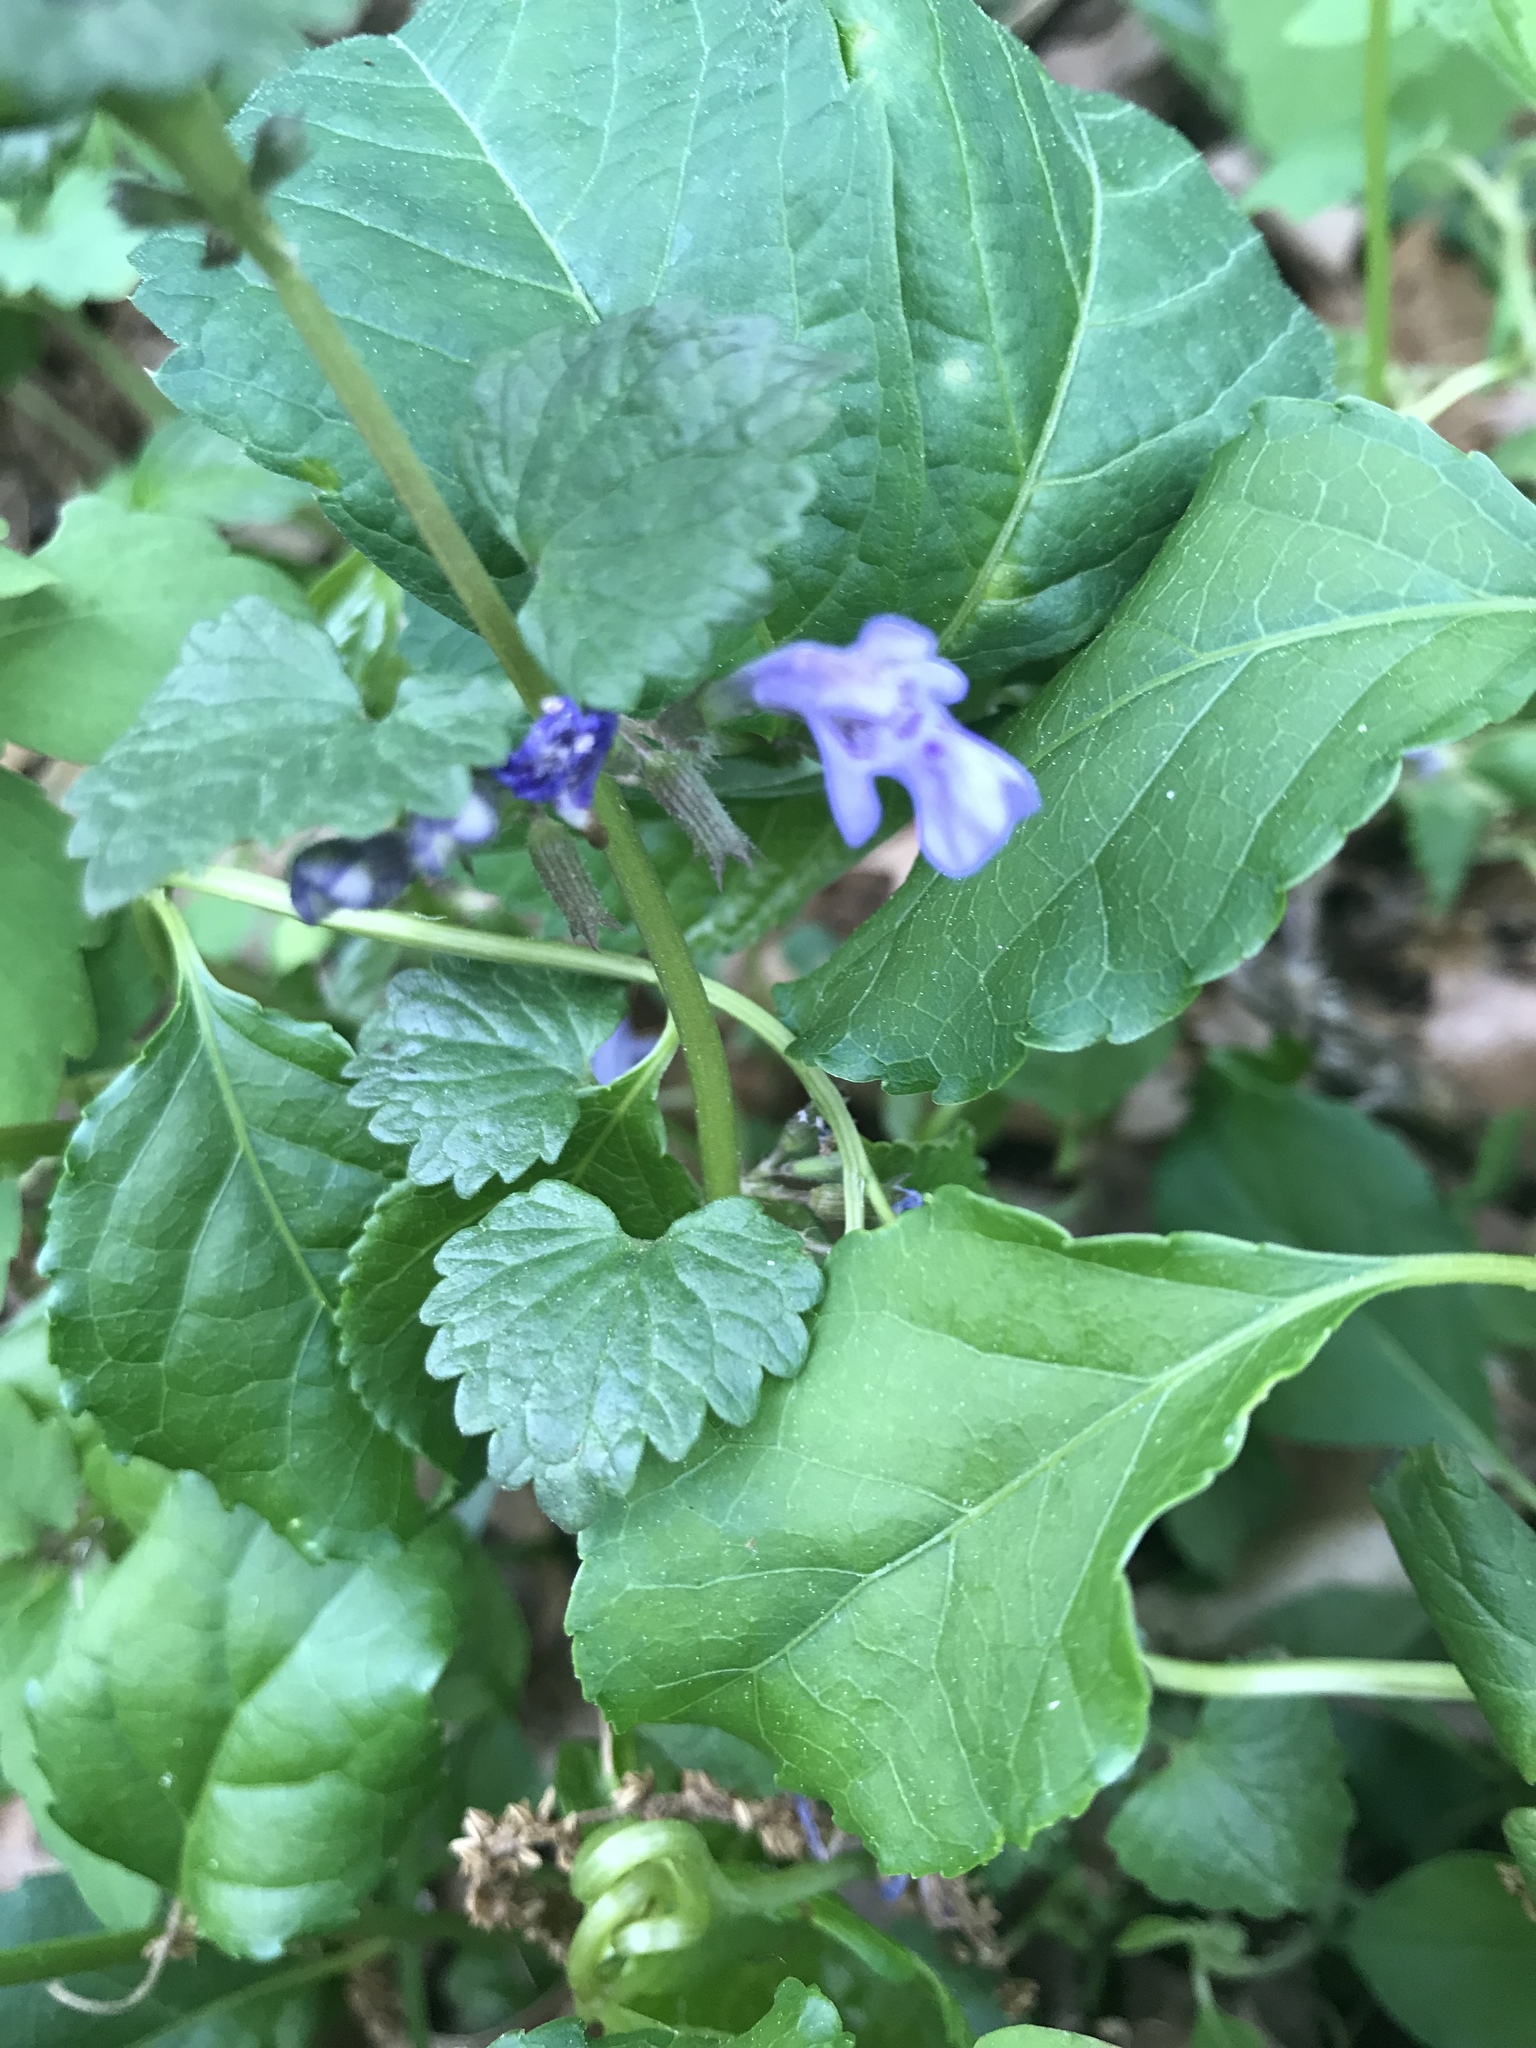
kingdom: Plantae
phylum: Tracheophyta
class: Magnoliopsida
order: Lamiales
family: Lamiaceae
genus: Glechoma
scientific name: Glechoma hederacea
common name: Ground ivy
